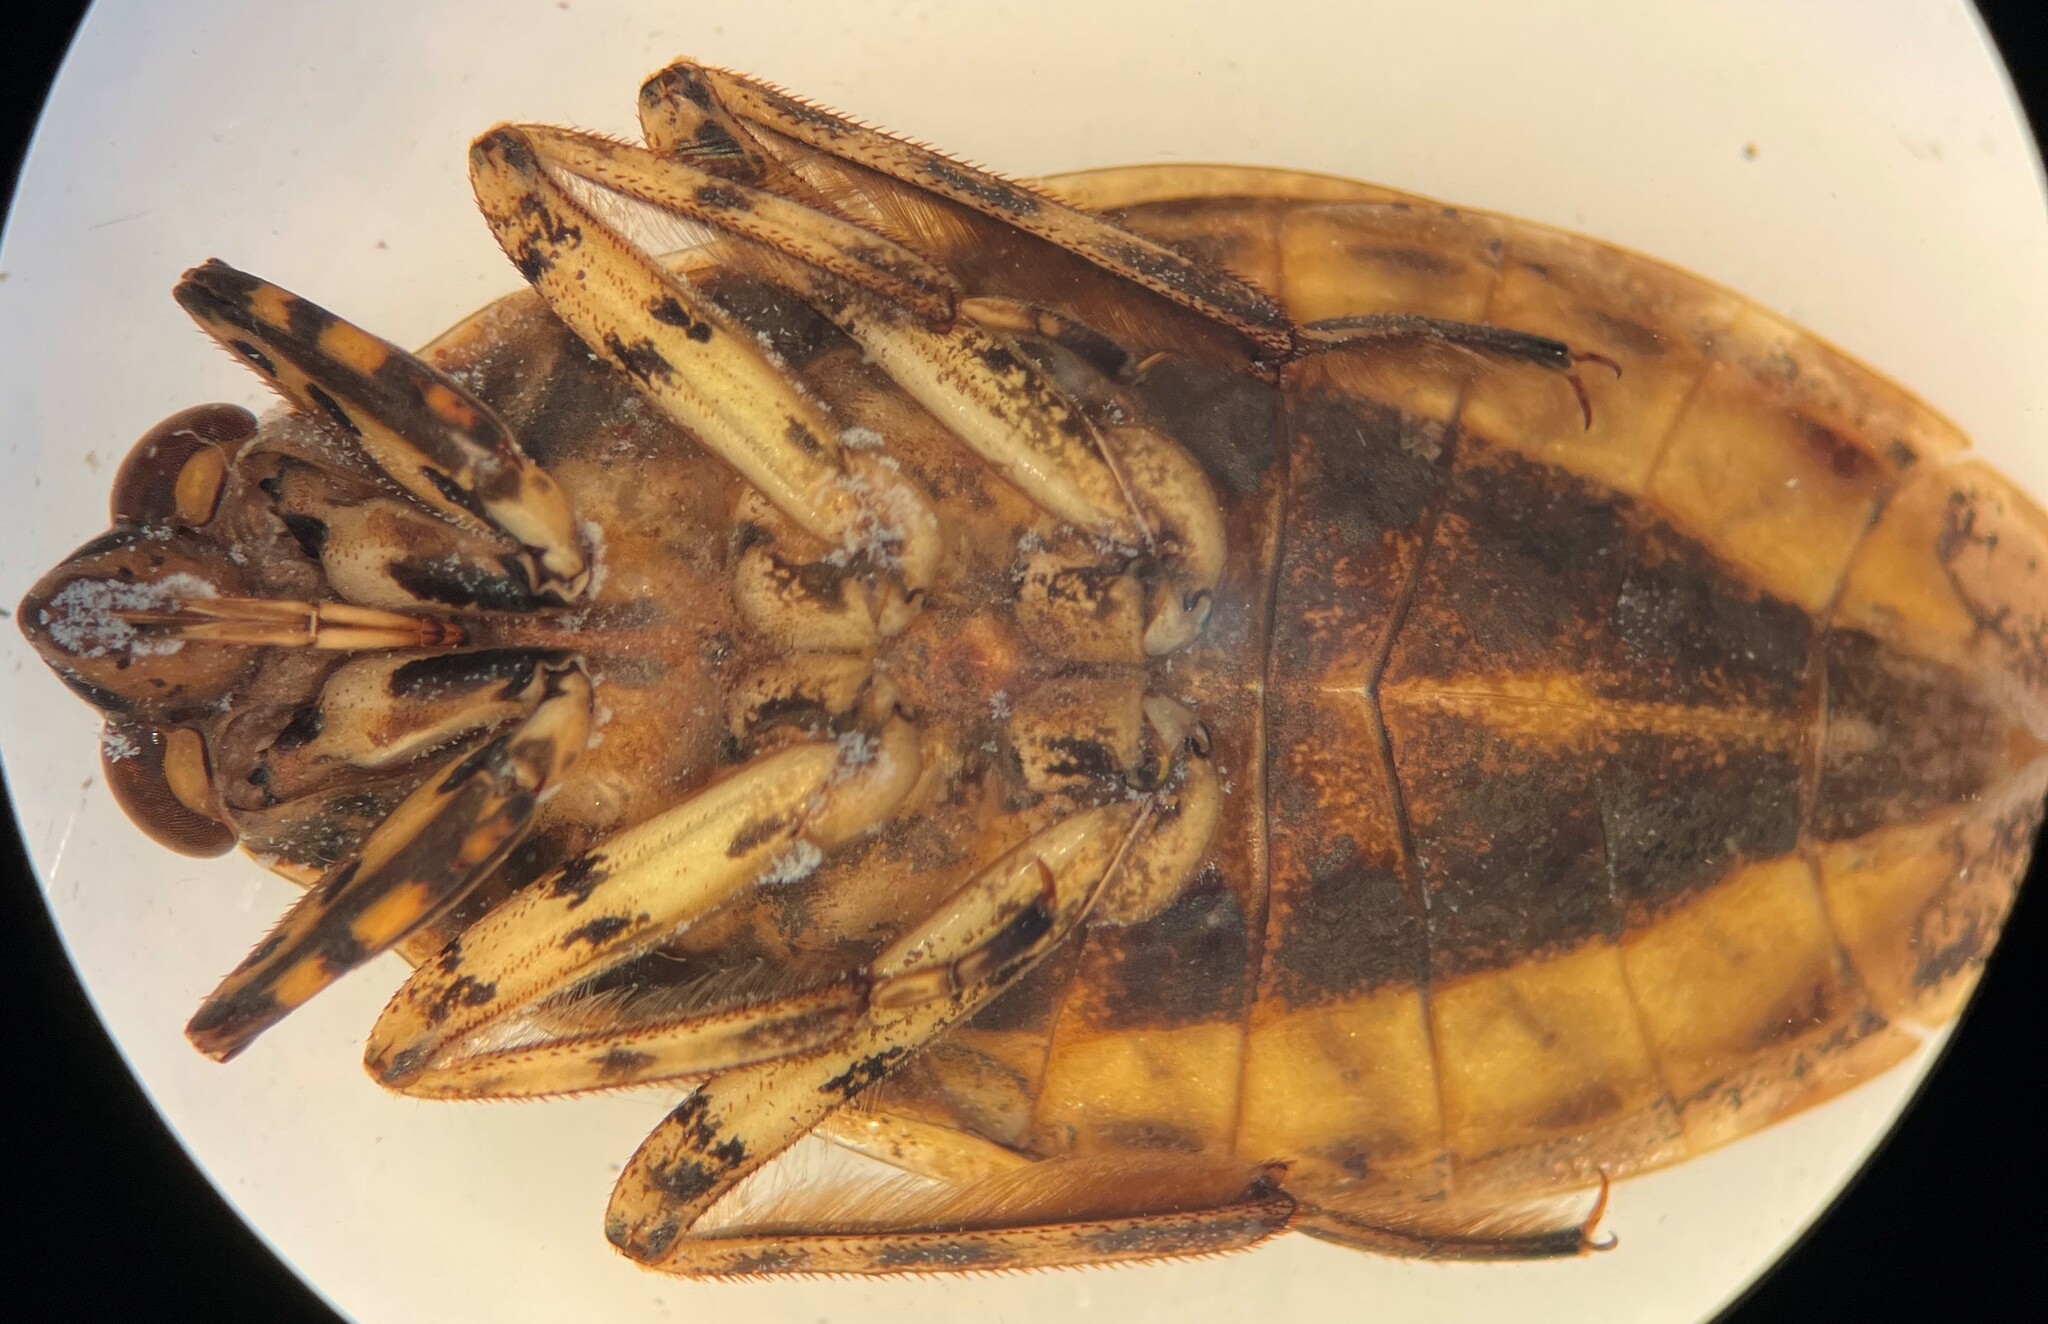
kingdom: Animalia
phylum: Arthropoda
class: Insecta
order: Hemiptera
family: Belostomatidae
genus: Belostoma
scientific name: Belostoma flumineum
